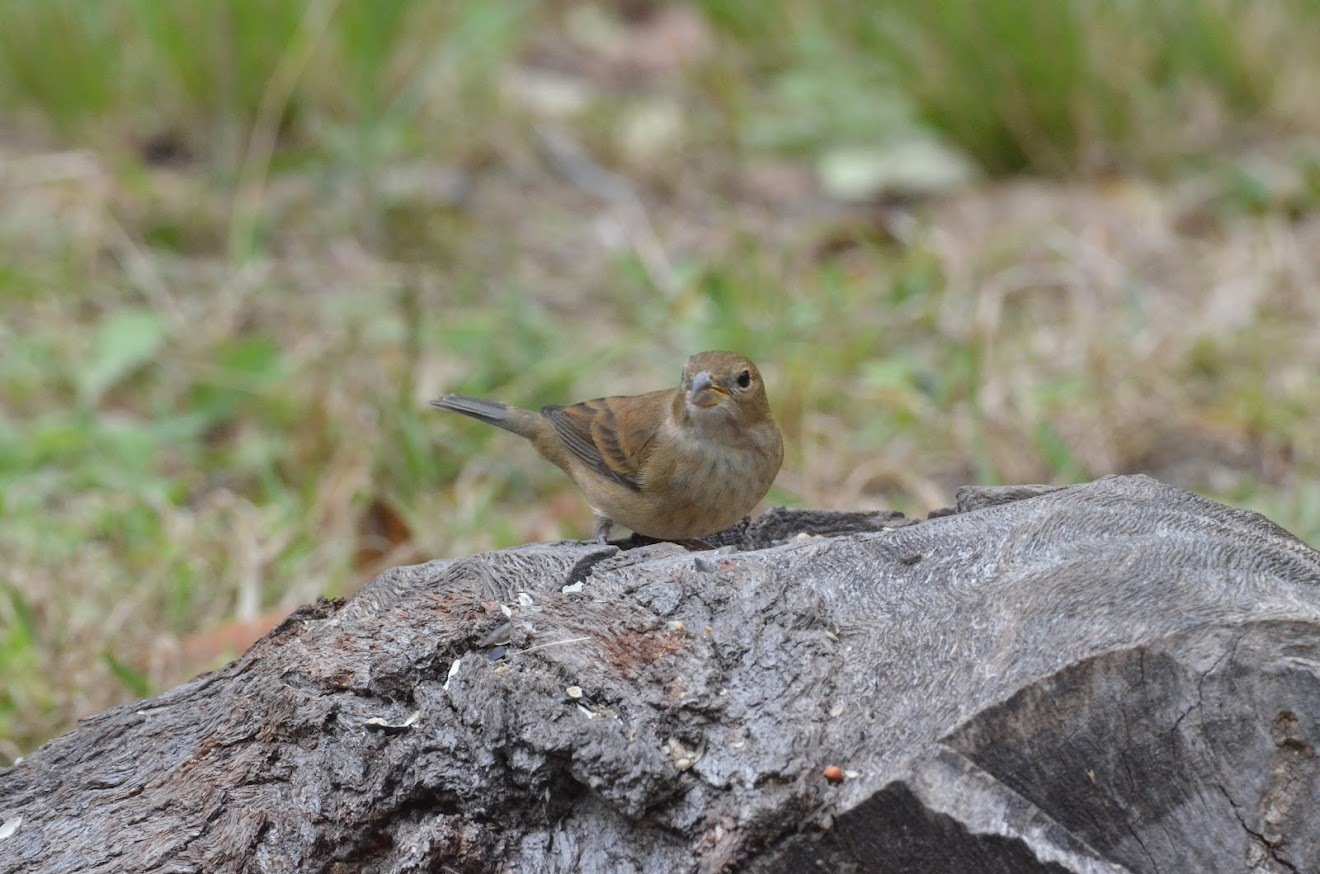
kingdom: Animalia
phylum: Chordata
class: Aves
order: Passeriformes
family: Cardinalidae
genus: Passerina
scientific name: Passerina cyanea
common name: Indigo bunting
